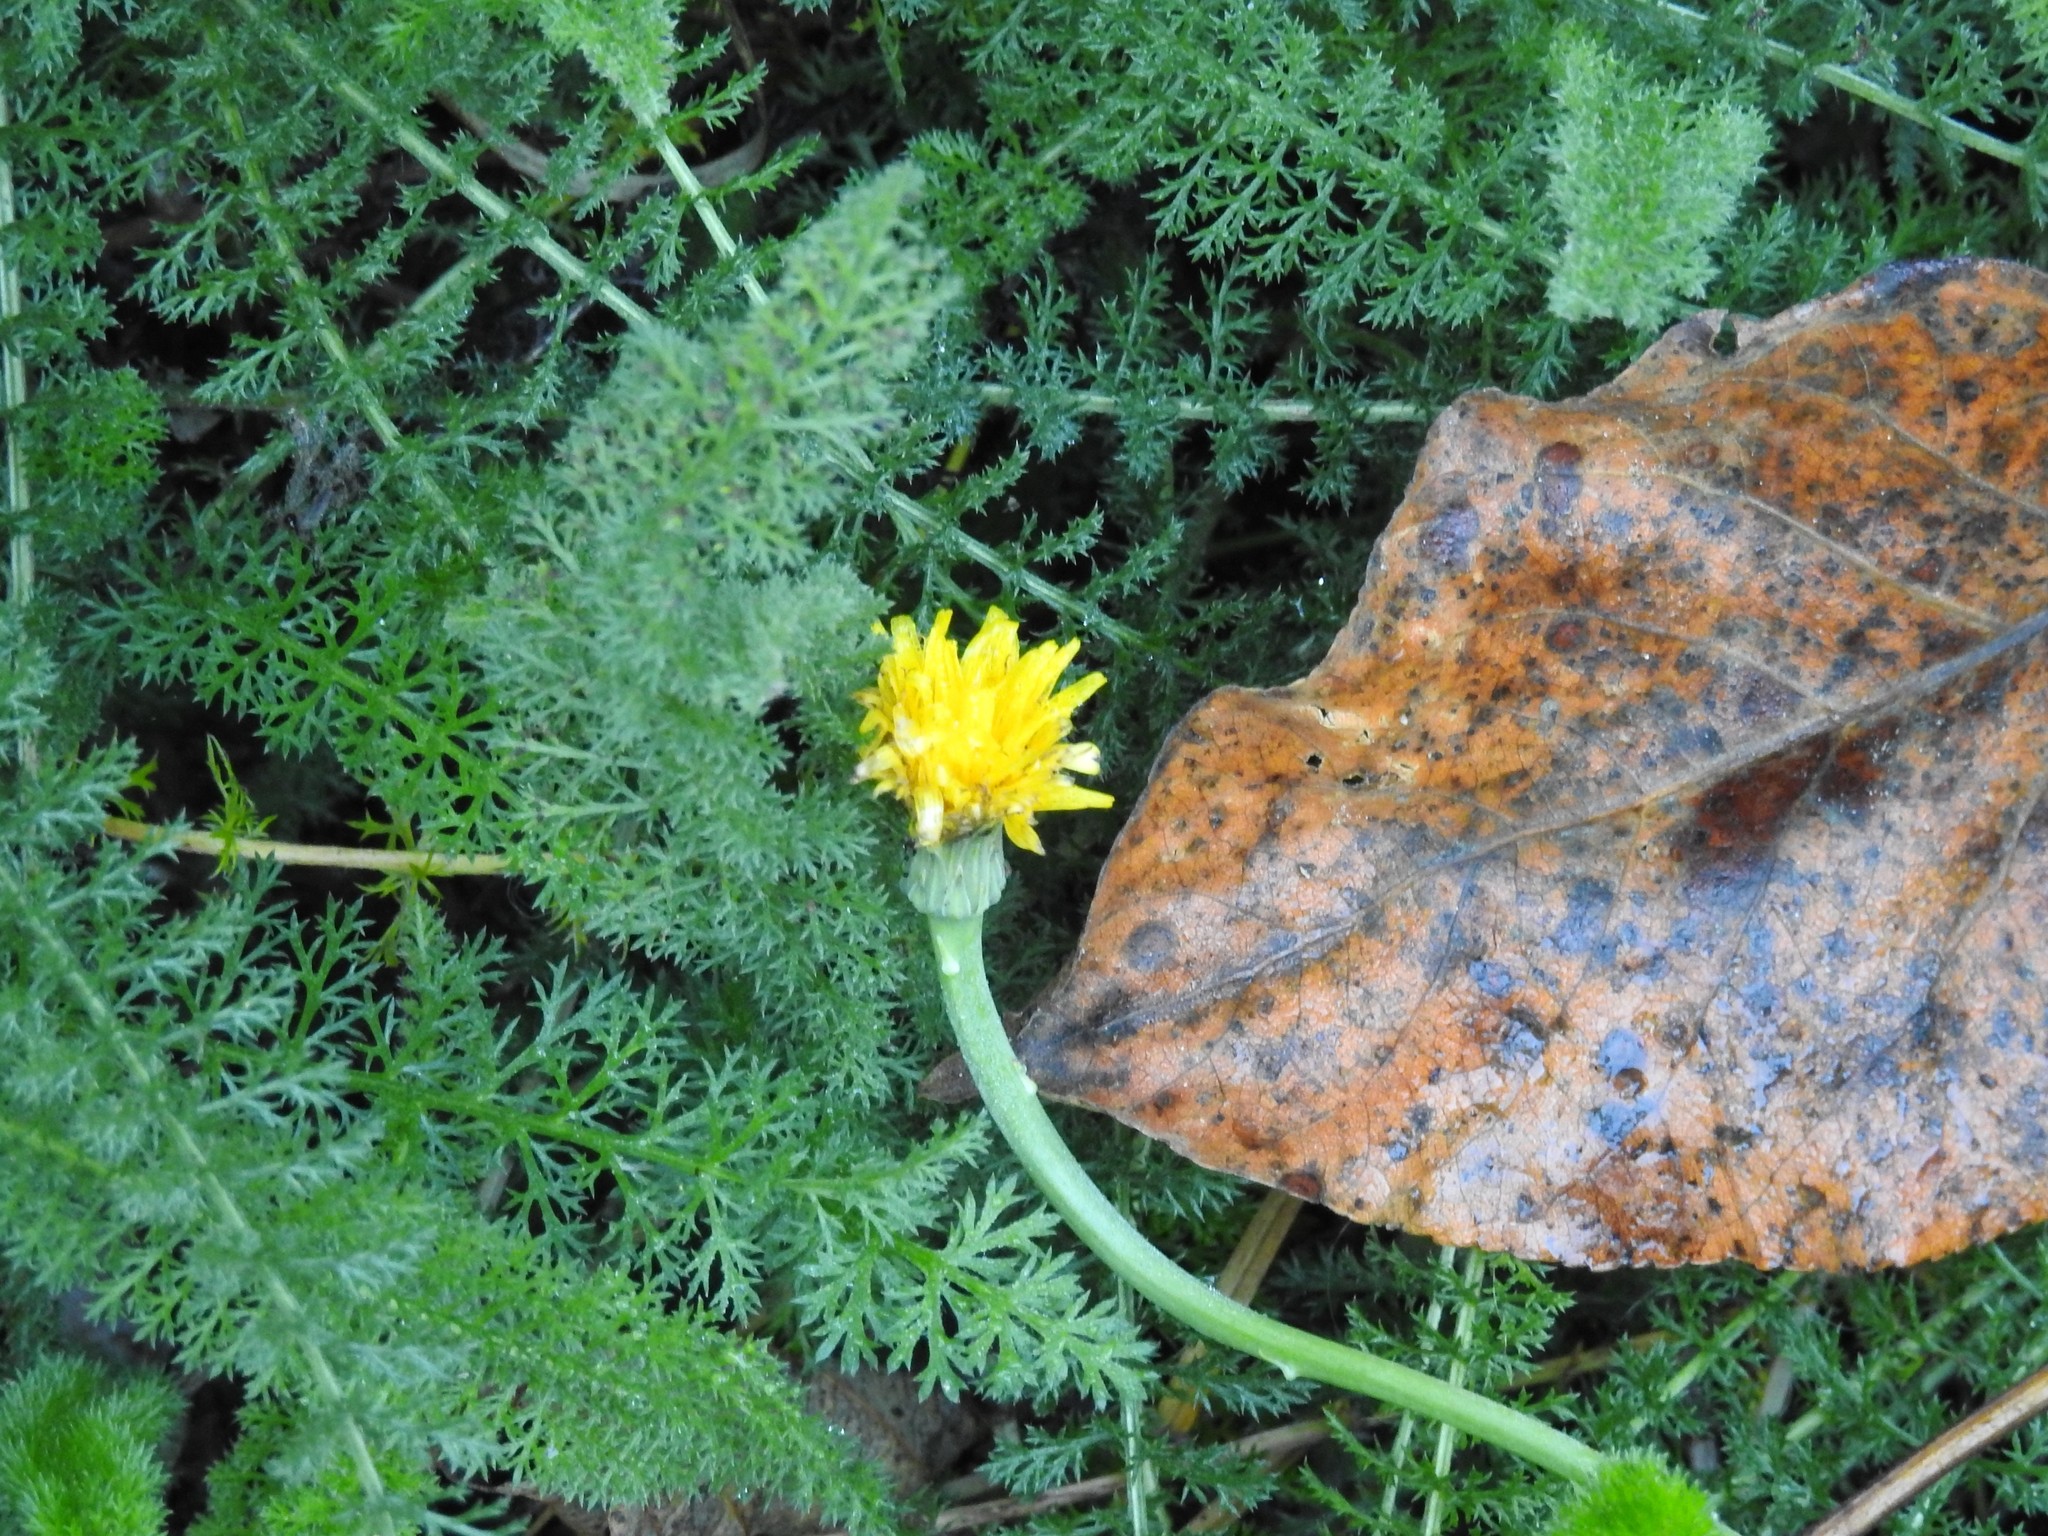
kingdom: Plantae
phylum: Tracheophyta
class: Magnoliopsida
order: Asterales
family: Asteraceae
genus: Taraxacum
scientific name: Taraxacum officinale
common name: Common dandelion
